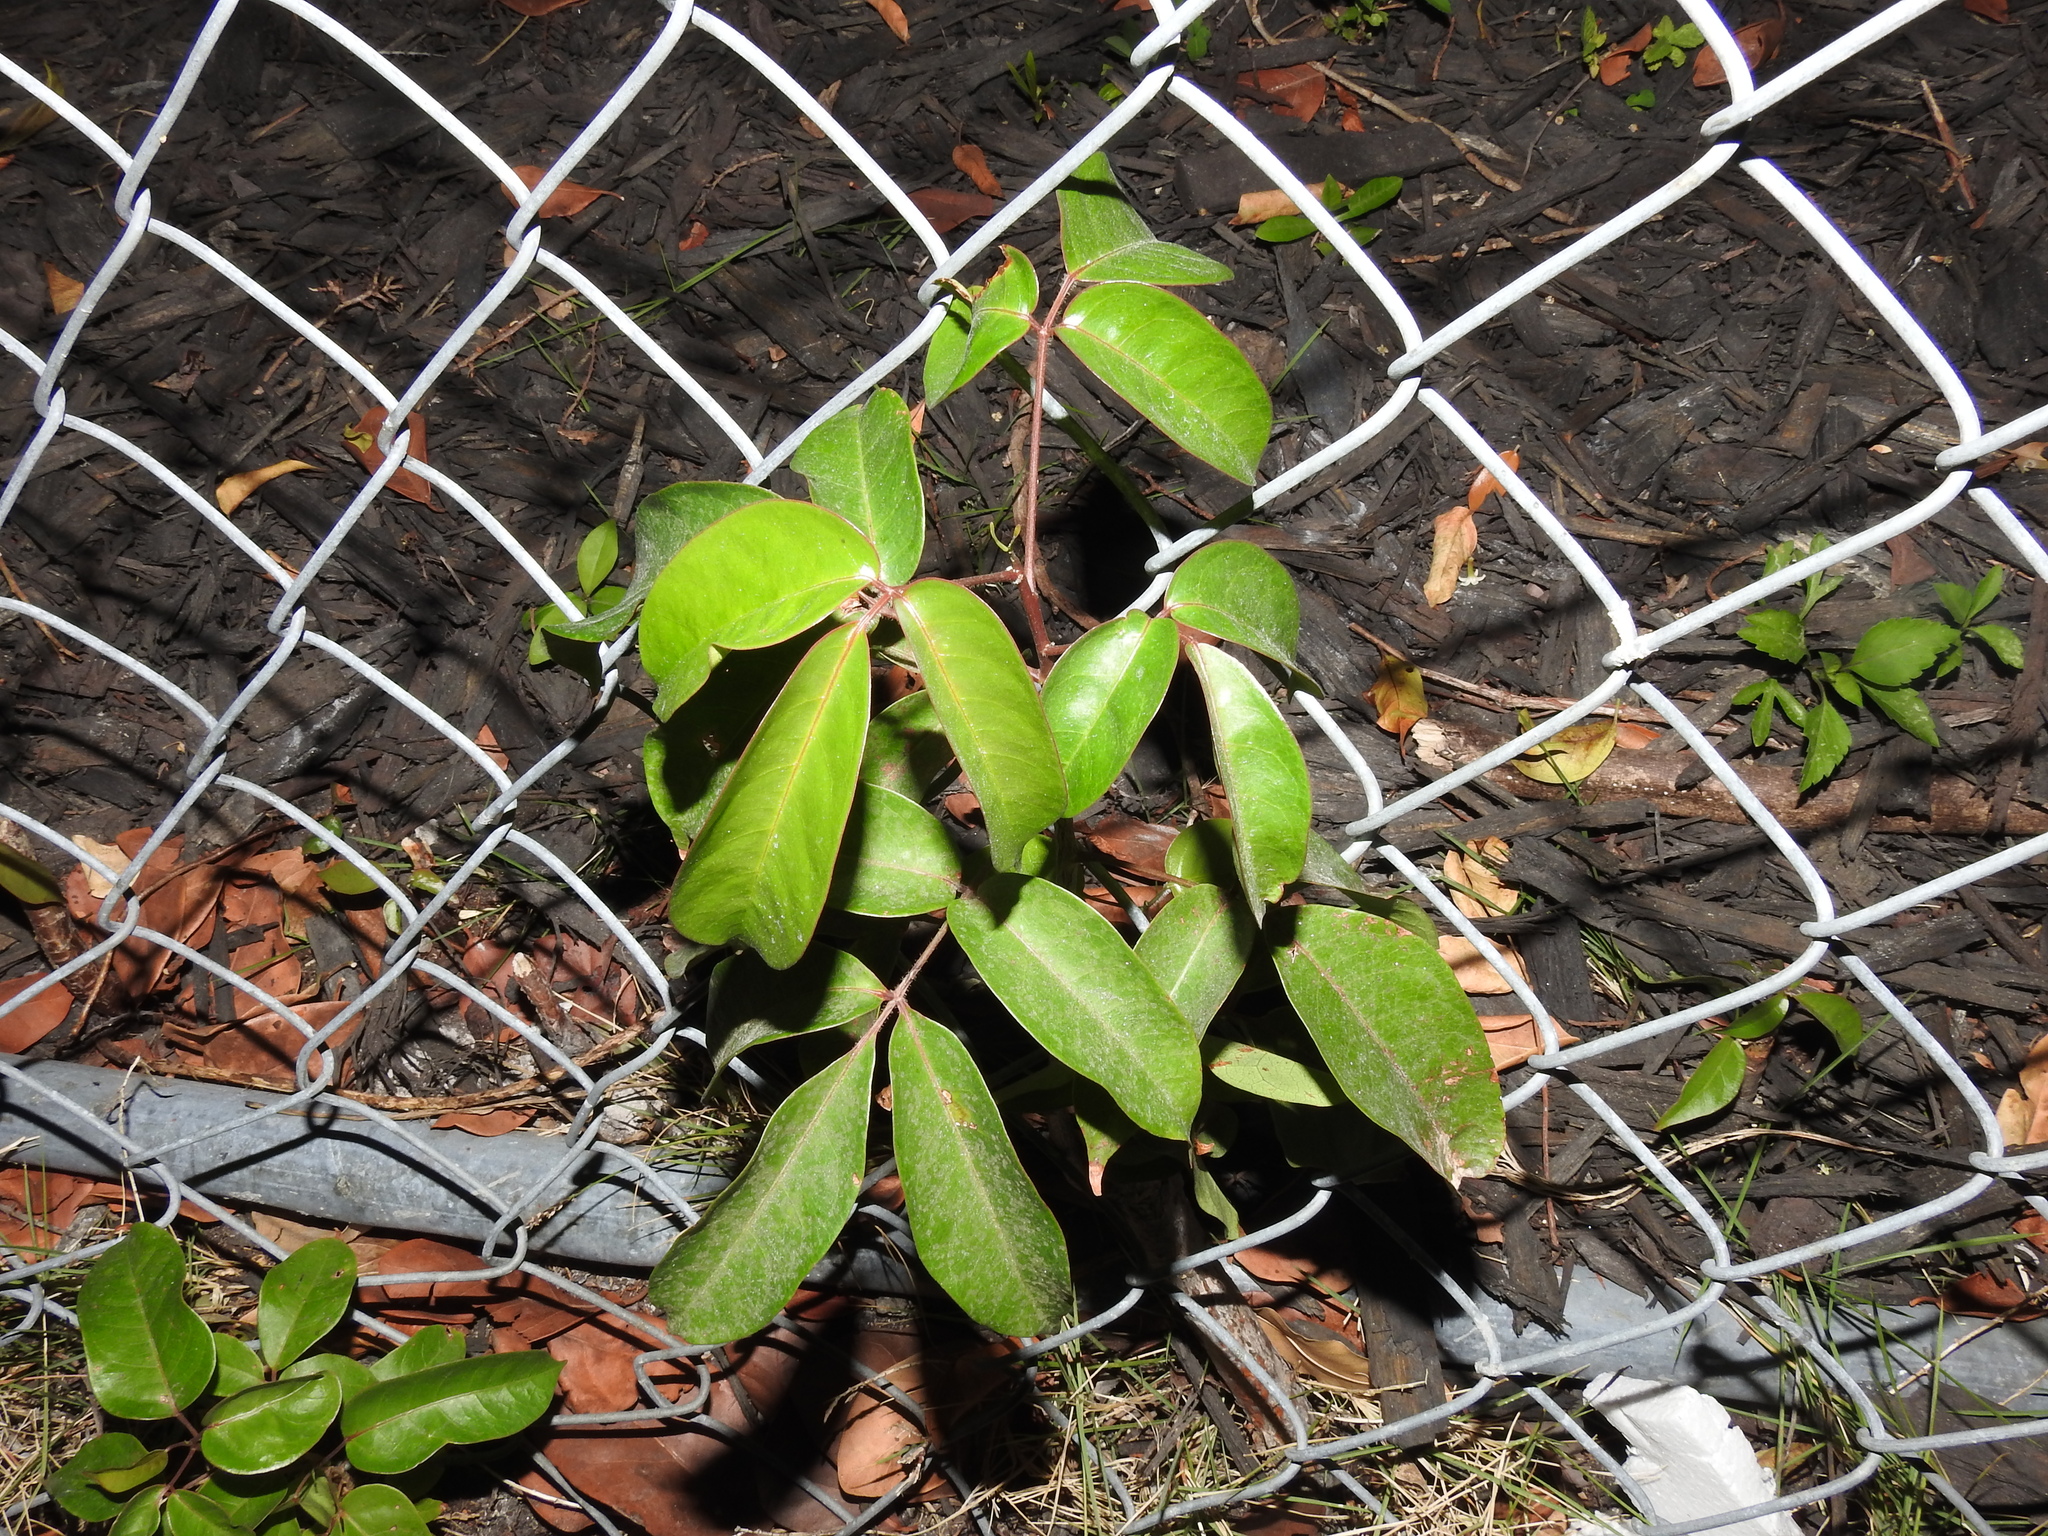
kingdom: Plantae
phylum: Tracheophyta
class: Magnoliopsida
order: Sapindales
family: Burseraceae
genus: Bursera
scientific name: Bursera simaruba
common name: Turpentine tree
